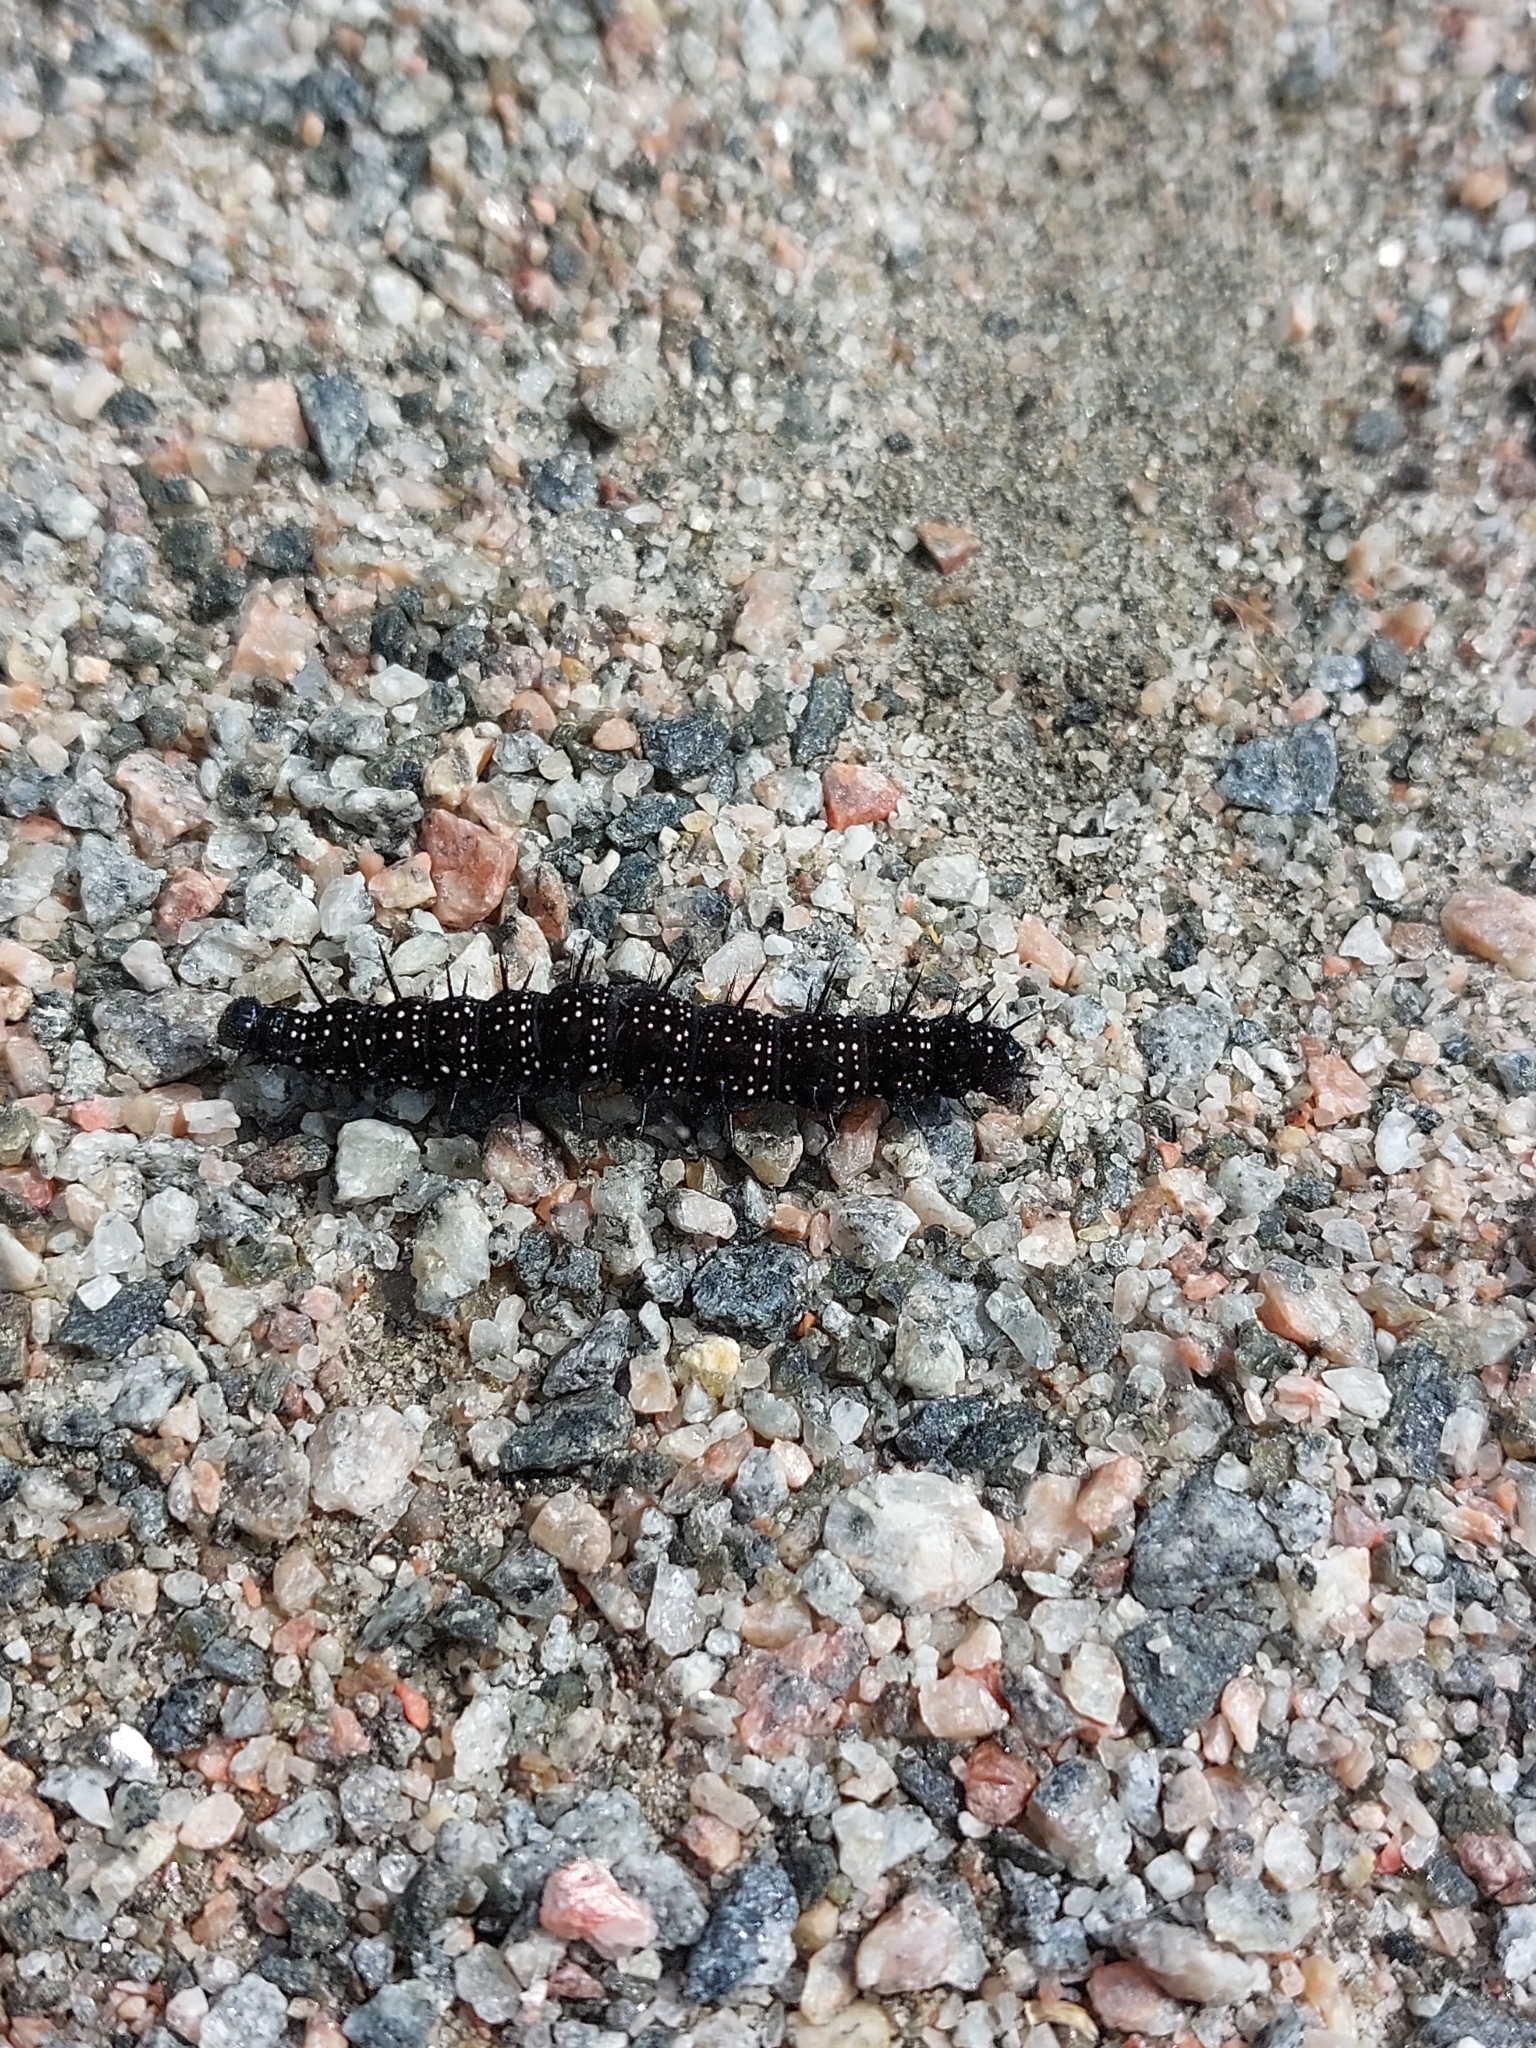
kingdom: Animalia
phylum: Arthropoda
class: Insecta
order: Lepidoptera
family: Nymphalidae
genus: Aglais
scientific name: Aglais io
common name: Peacock
